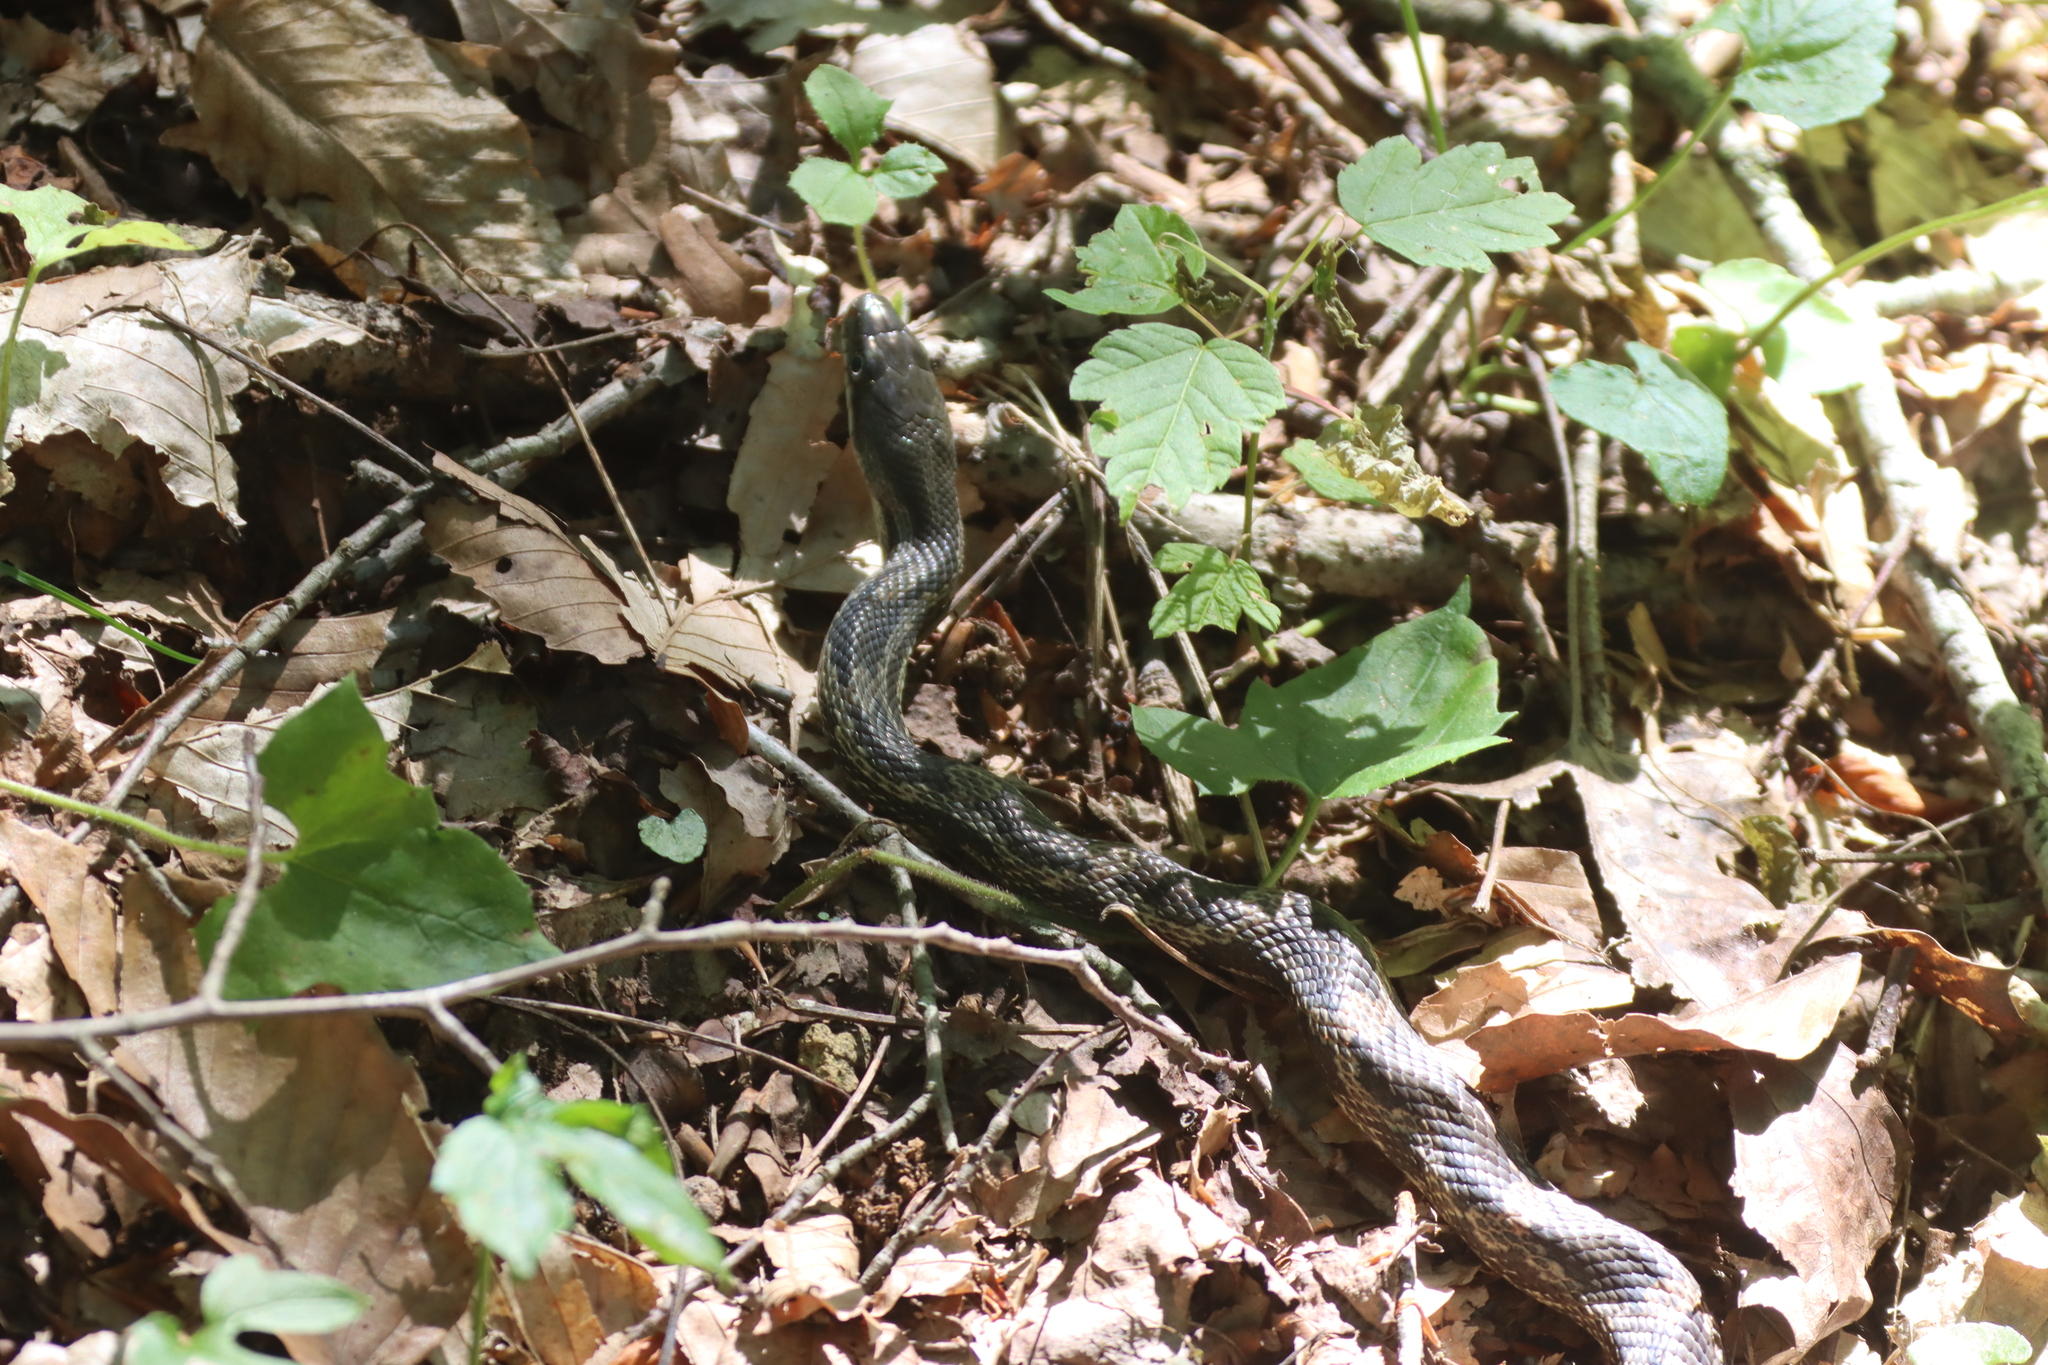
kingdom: Animalia
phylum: Chordata
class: Squamata
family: Colubridae
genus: Pantherophis
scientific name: Pantherophis spiloides
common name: Gray rat snake
